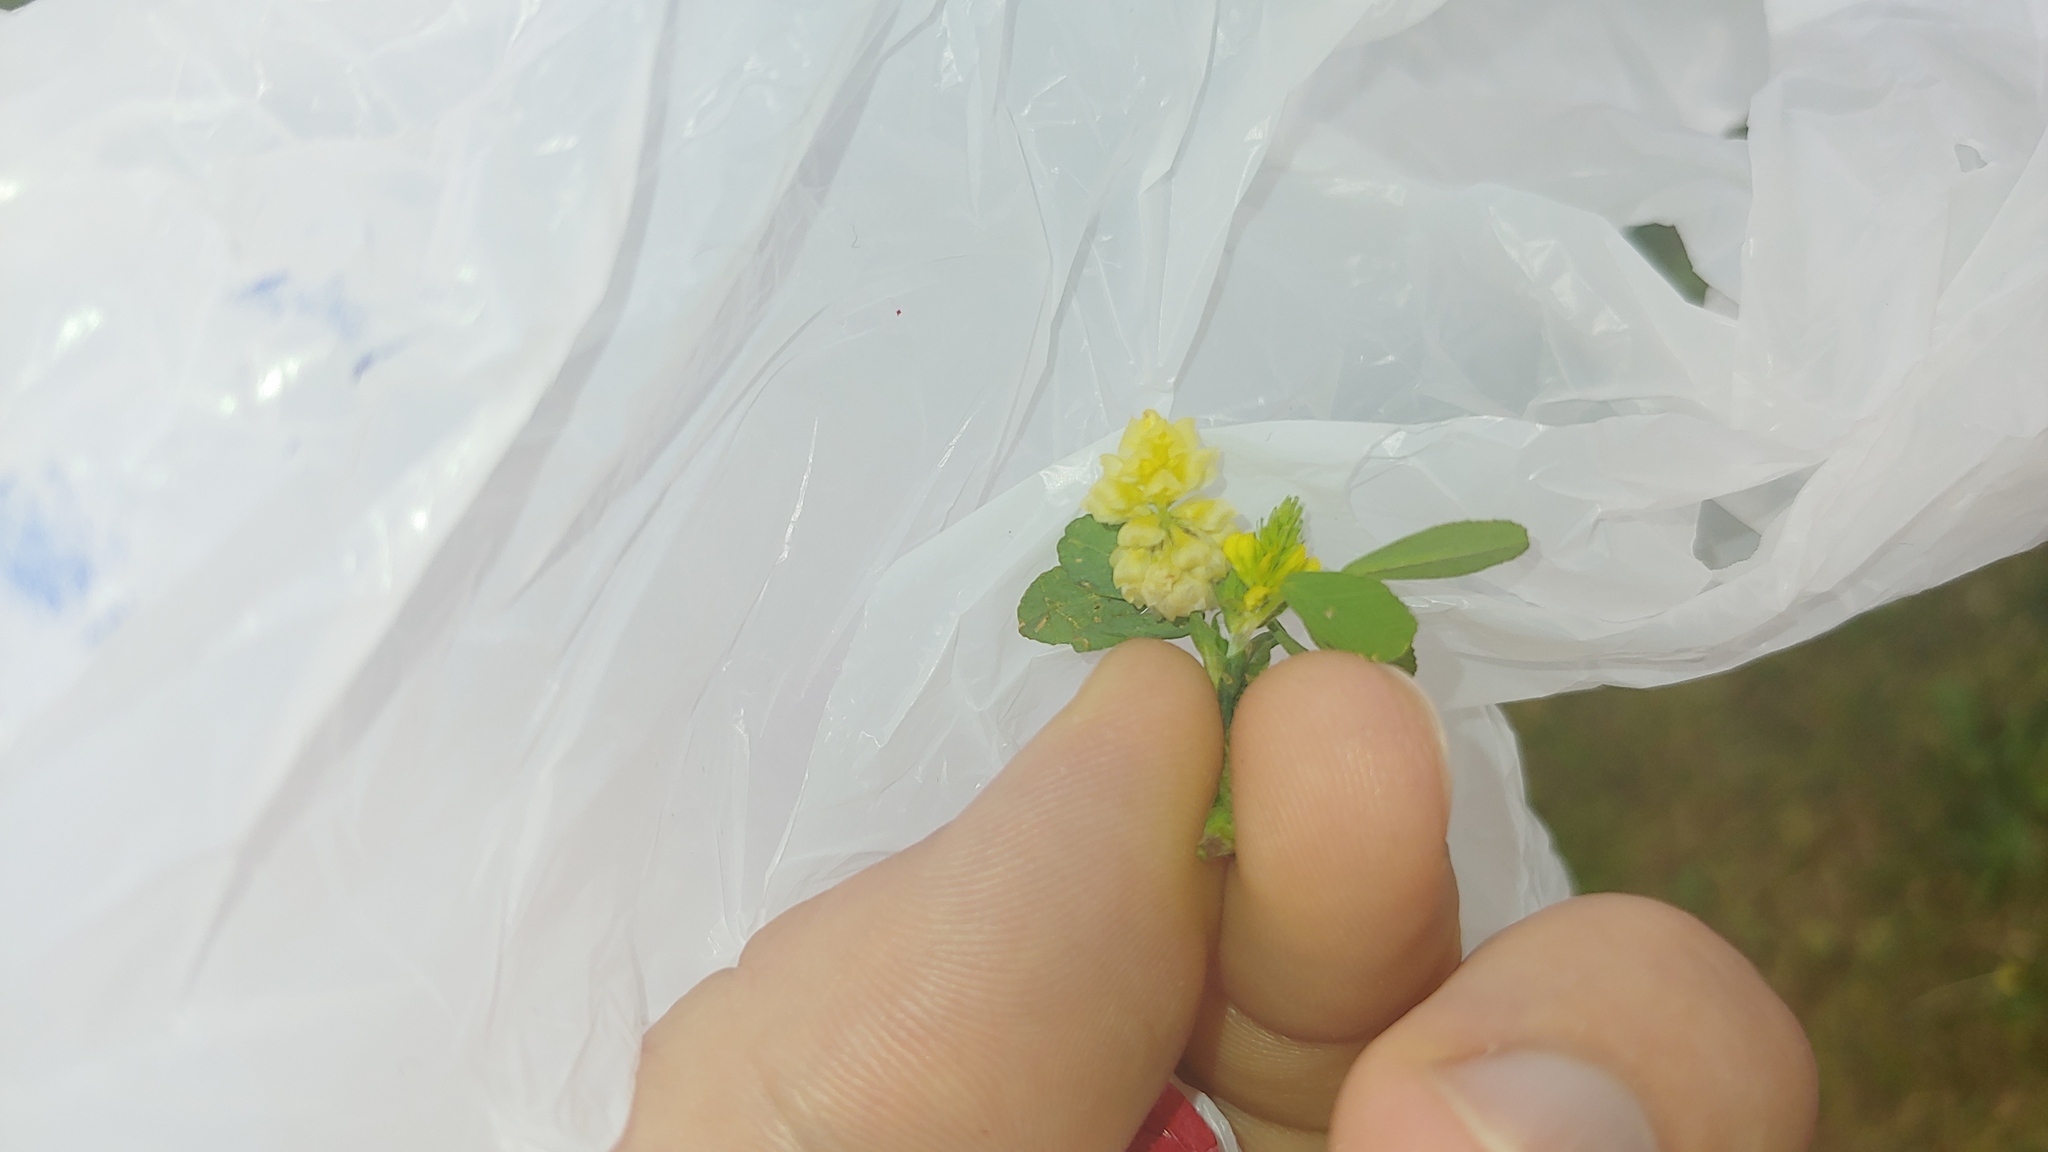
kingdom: Plantae
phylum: Tracheophyta
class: Magnoliopsida
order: Fabales
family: Fabaceae
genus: Trifolium
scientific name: Trifolium campestre
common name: Field clover
